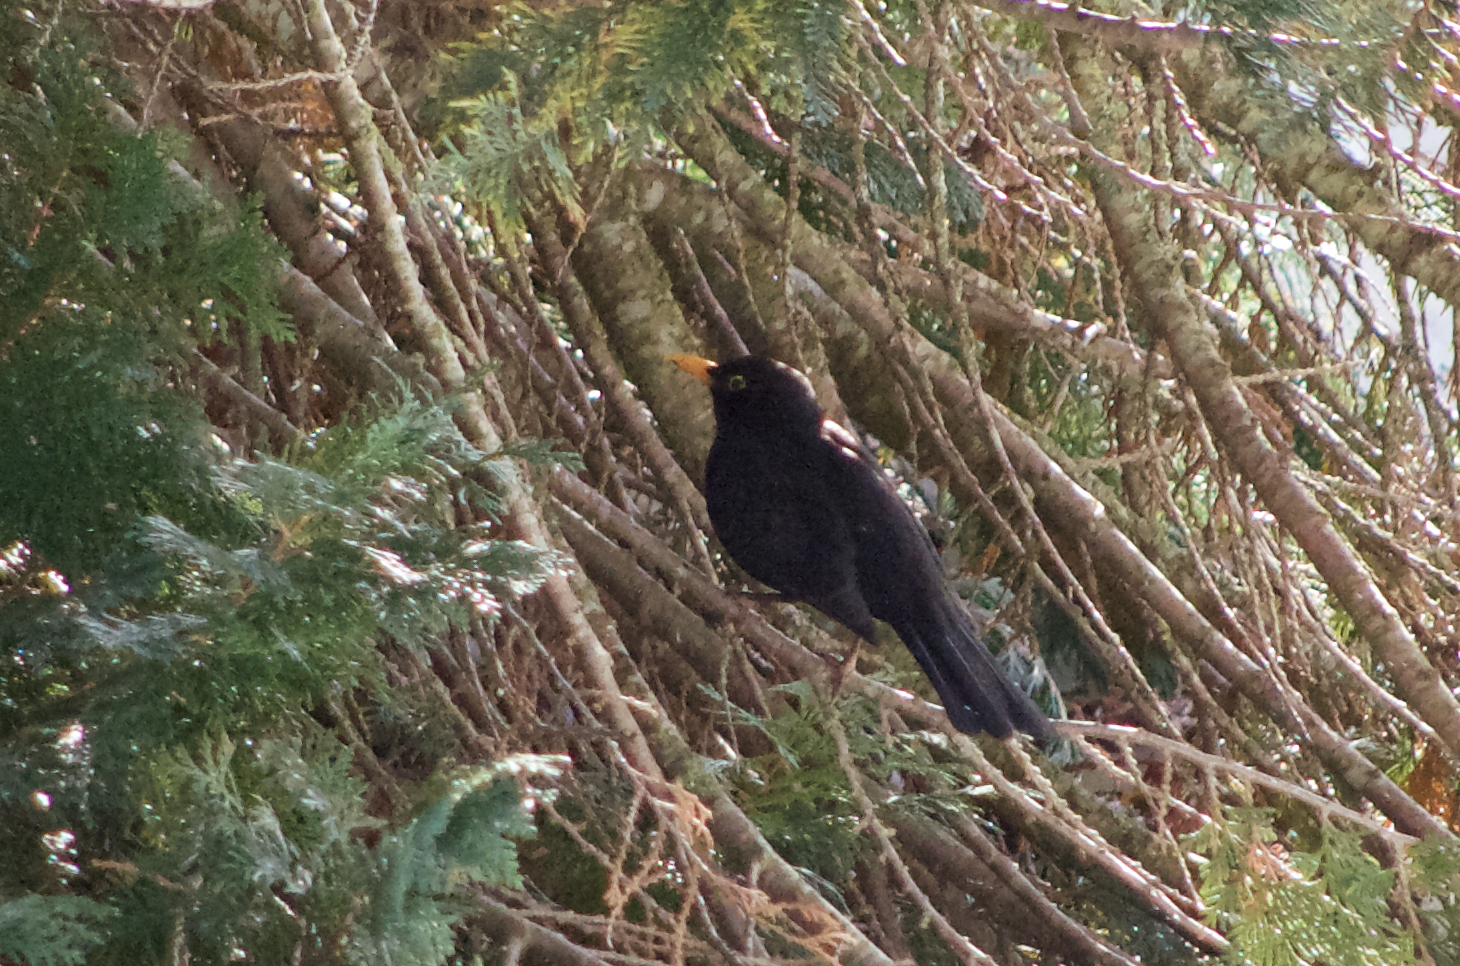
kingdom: Animalia
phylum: Chordata
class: Aves
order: Passeriformes
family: Turdidae
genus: Turdus
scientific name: Turdus merula
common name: Common blackbird
